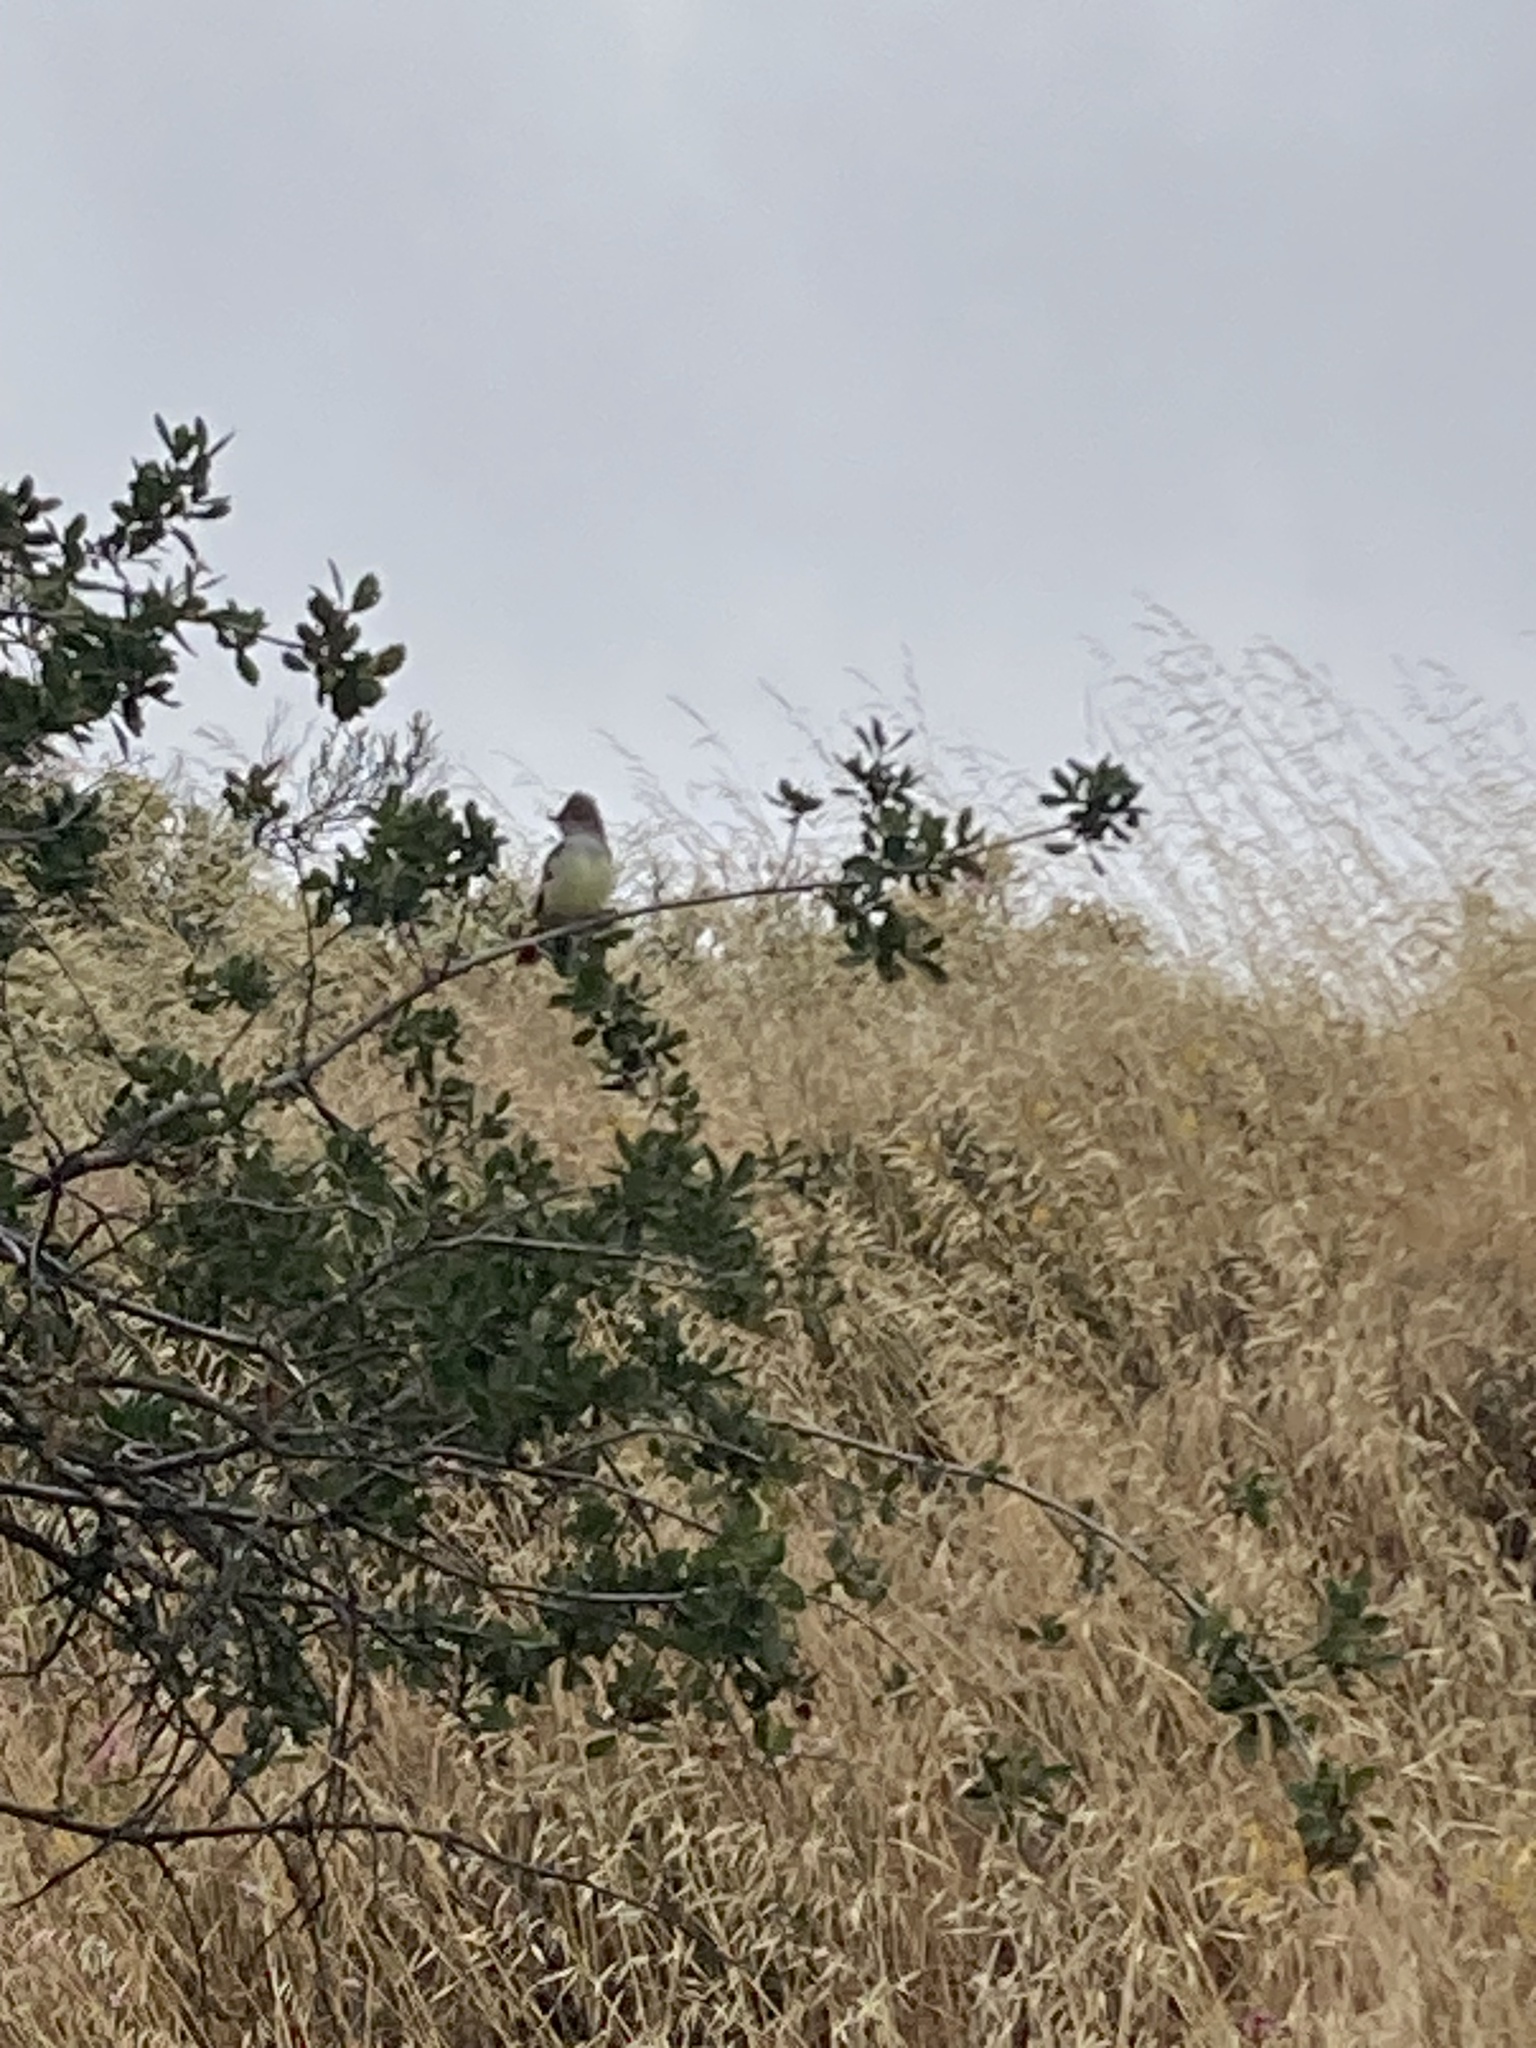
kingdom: Animalia
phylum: Chordata
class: Aves
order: Passeriformes
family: Tyrannidae
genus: Myiarchus
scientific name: Myiarchus cinerascens
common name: Ash-throated flycatcher
